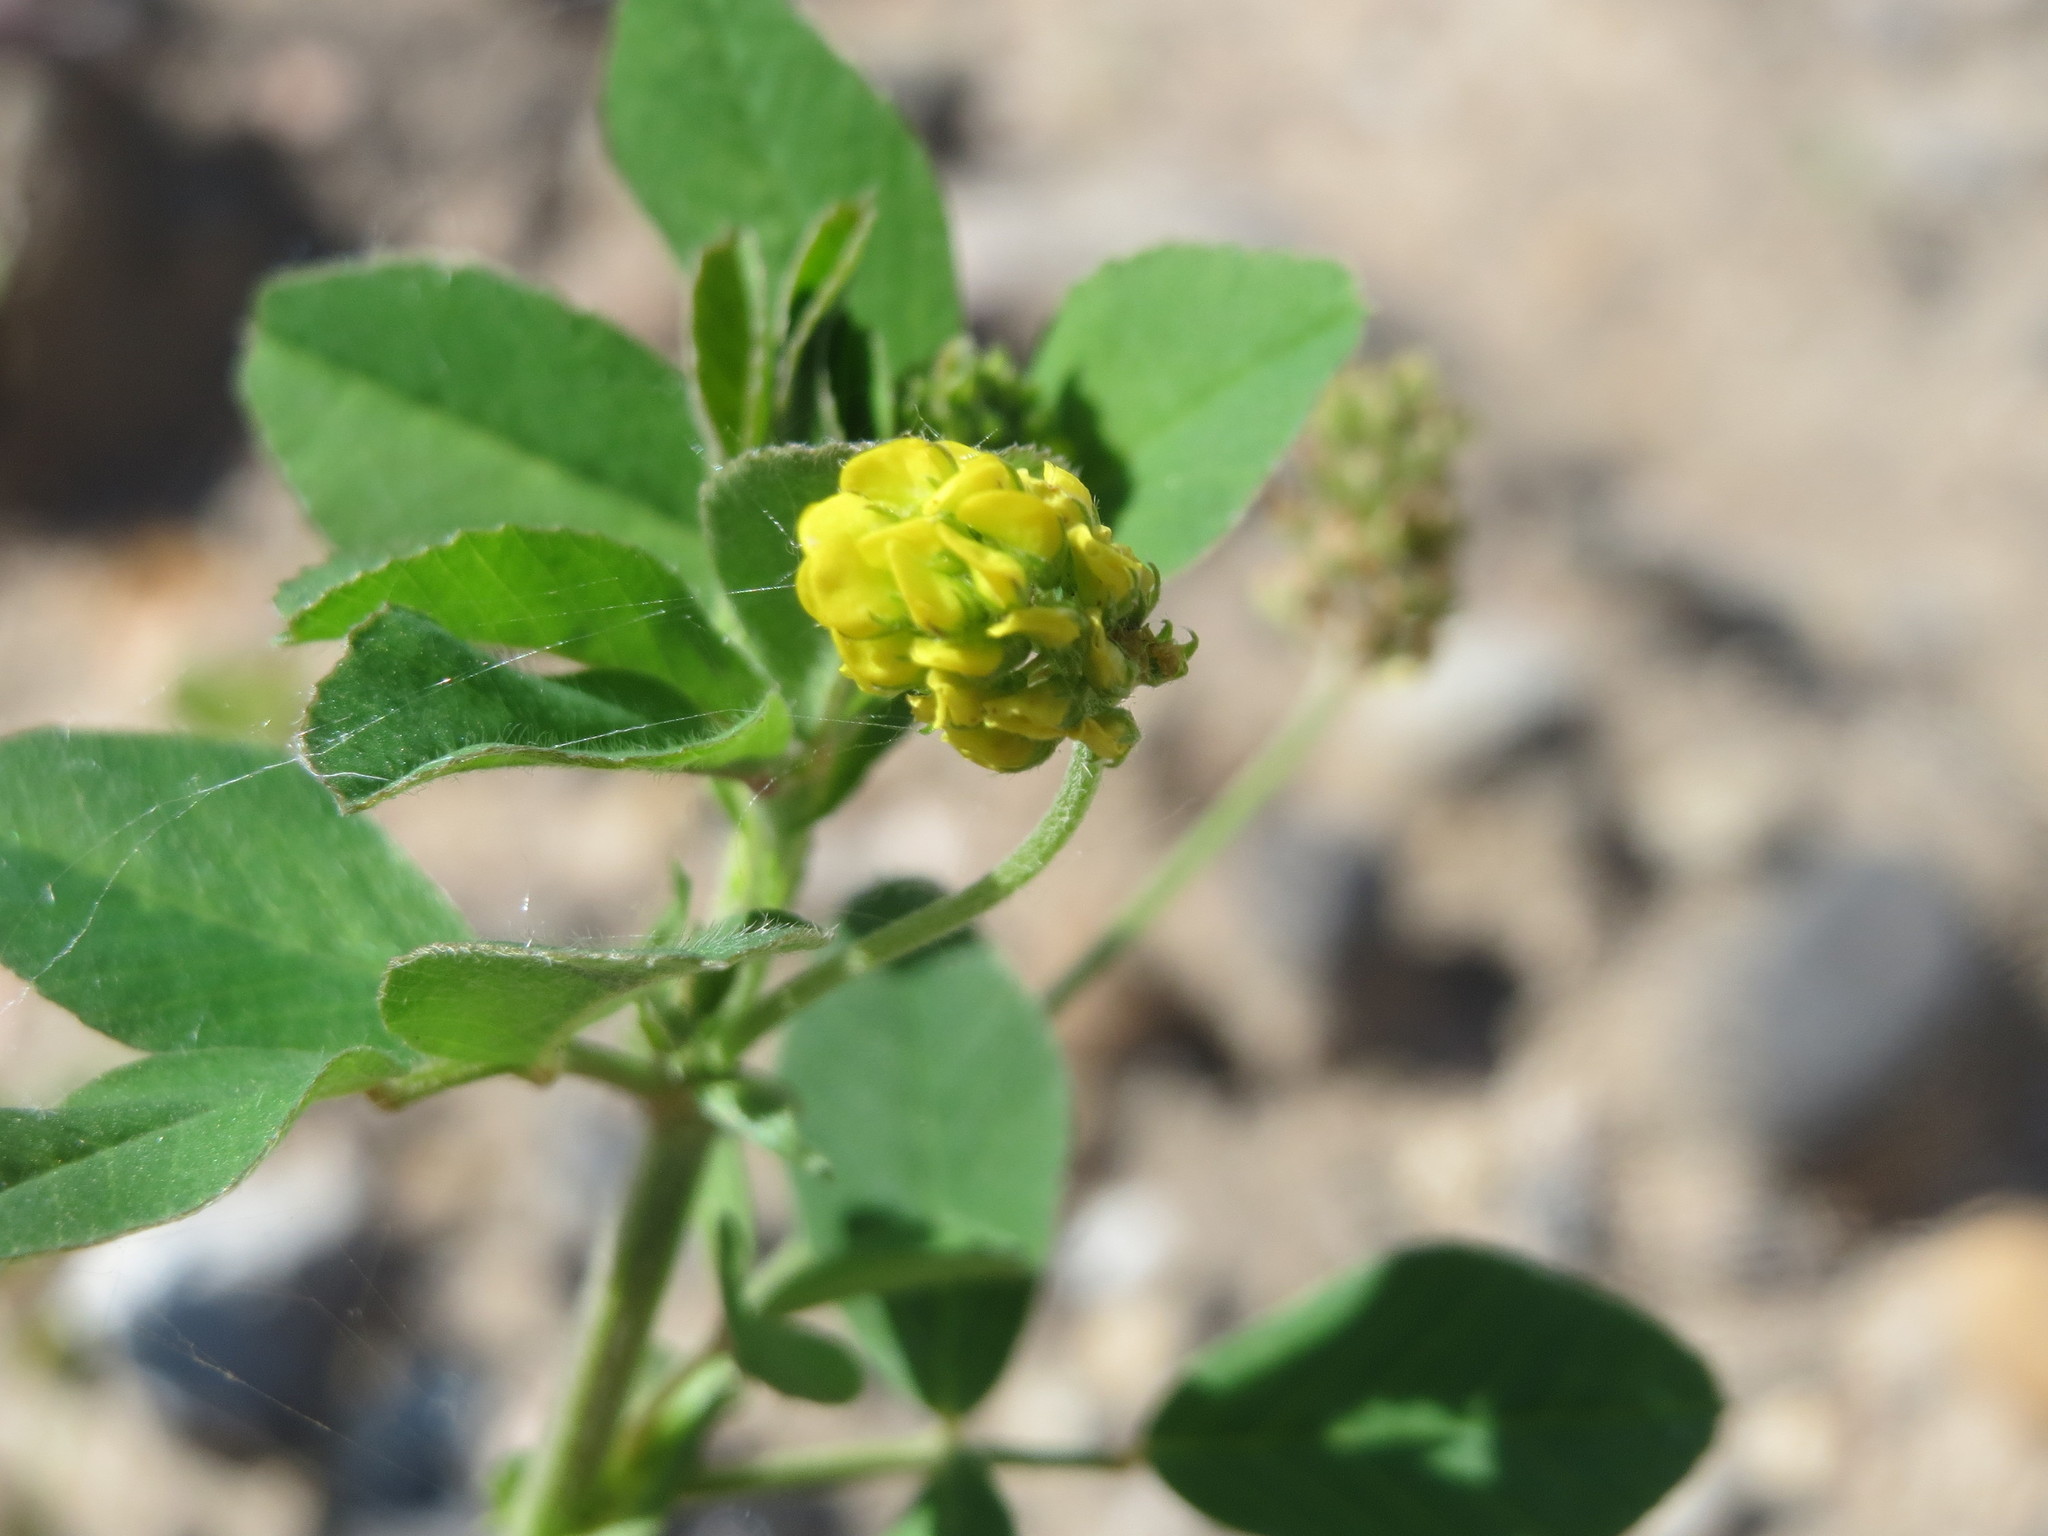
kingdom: Plantae
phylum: Tracheophyta
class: Magnoliopsida
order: Fabales
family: Fabaceae
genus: Medicago
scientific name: Medicago lupulina
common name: Black medick
